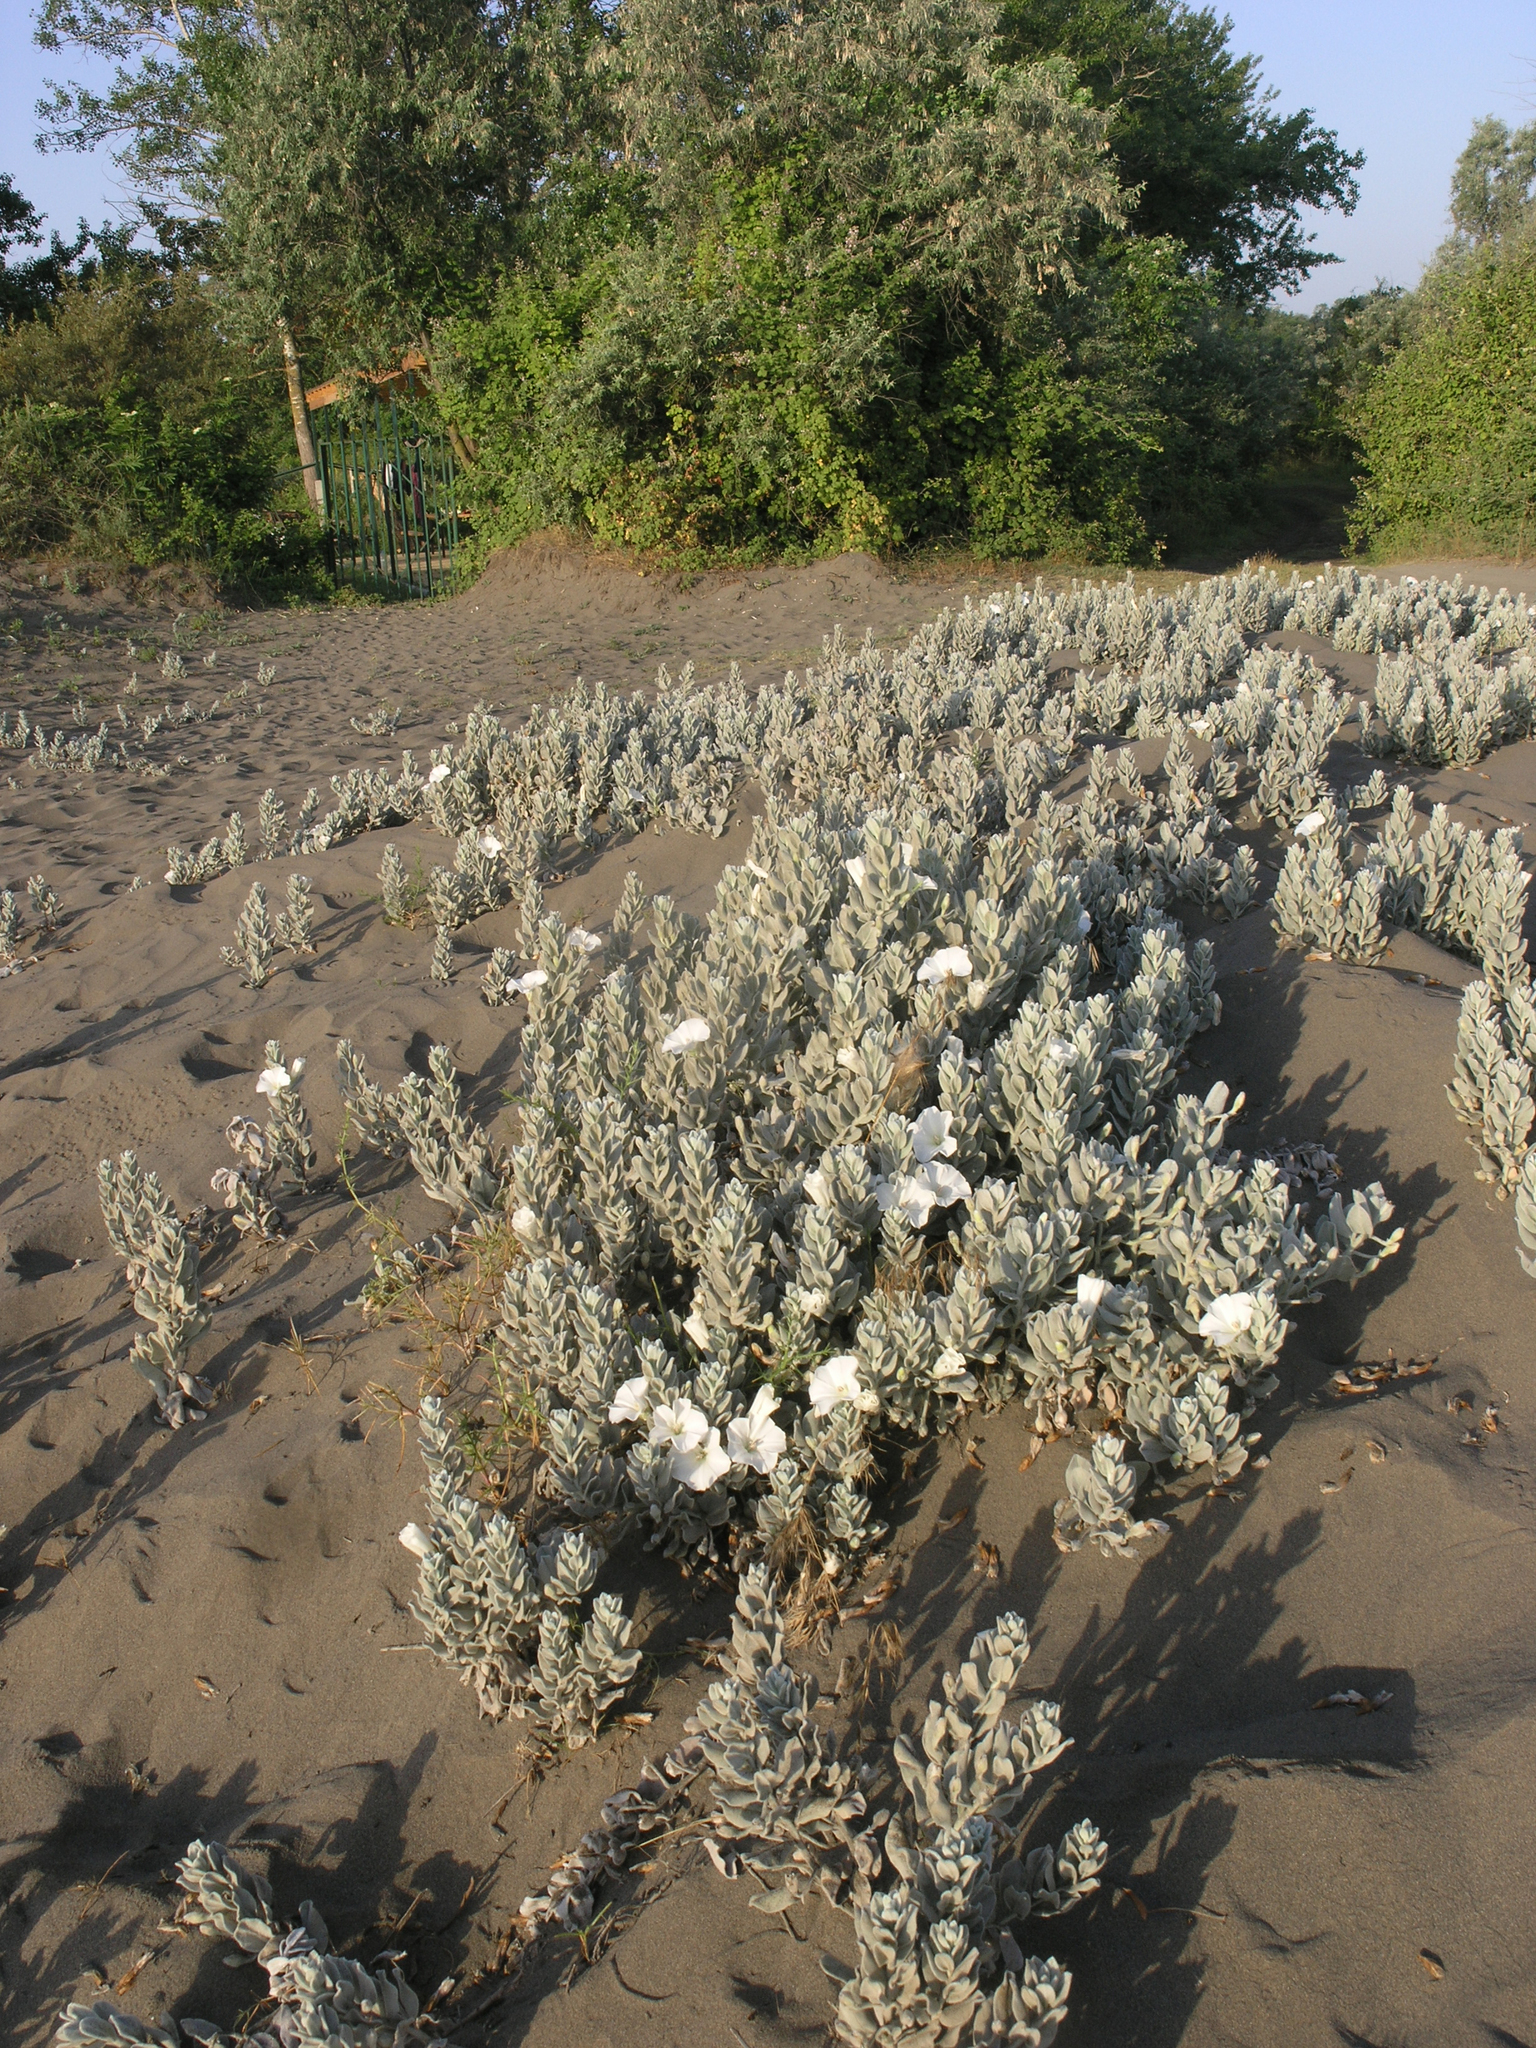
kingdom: Plantae
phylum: Tracheophyta
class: Magnoliopsida
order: Solanales
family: Convolvulaceae
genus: Convolvulus
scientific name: Convolvulus persicus
